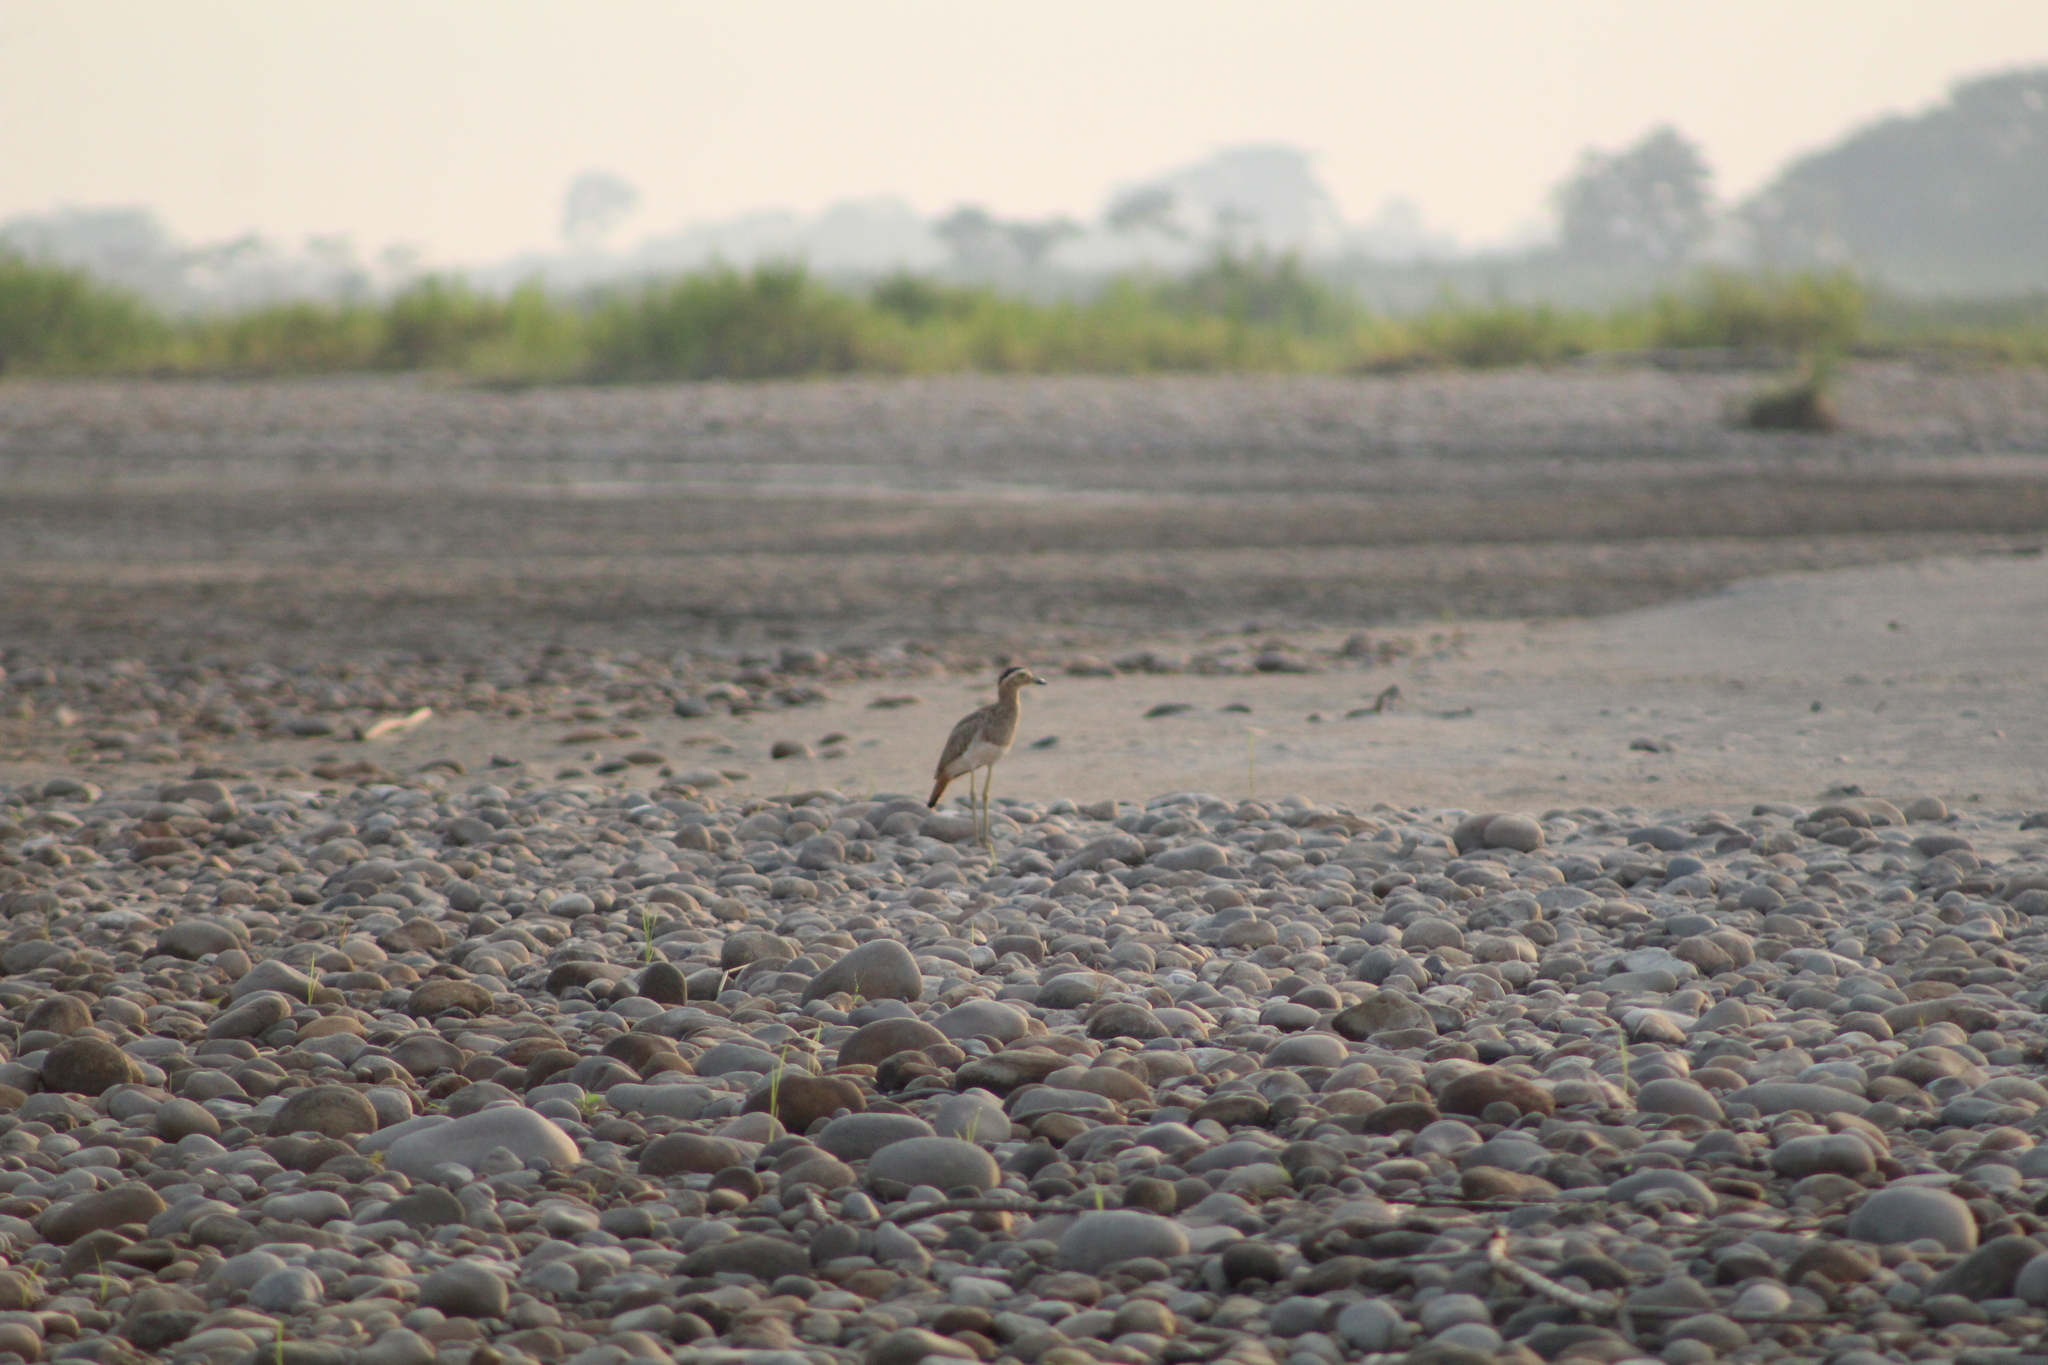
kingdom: Animalia
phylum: Chordata
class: Aves
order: Charadriiformes
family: Burhinidae
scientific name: Burhinidae
